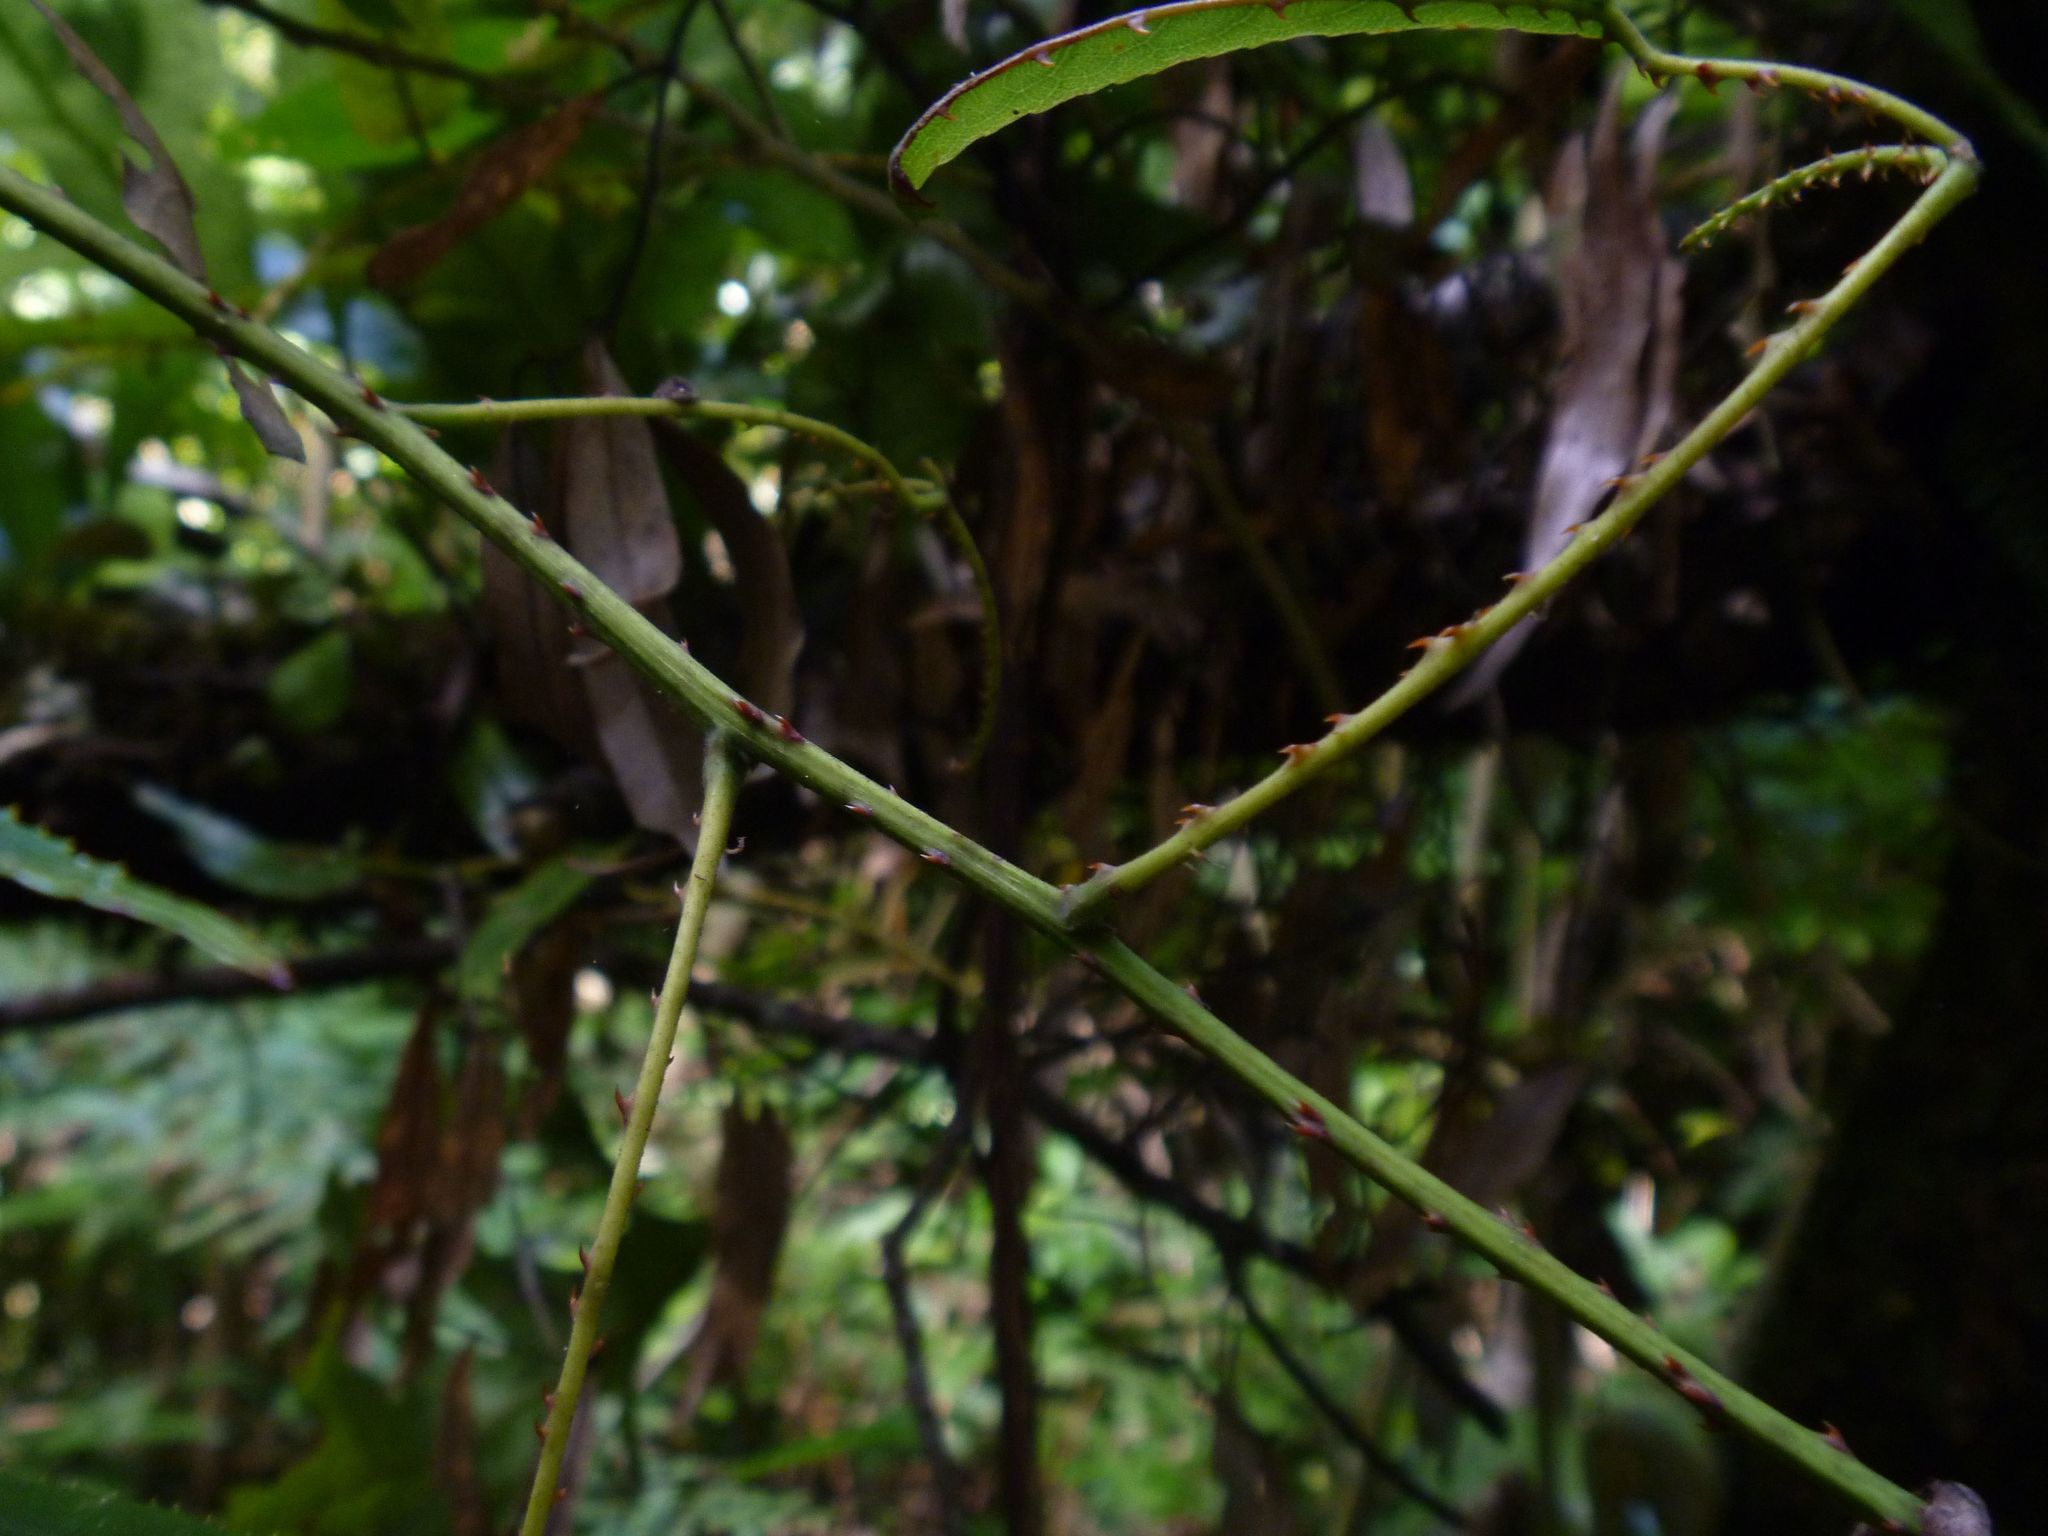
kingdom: Plantae
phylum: Tracheophyta
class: Magnoliopsida
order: Rosales
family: Rosaceae
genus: Rubus
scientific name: Rubus cissoides
